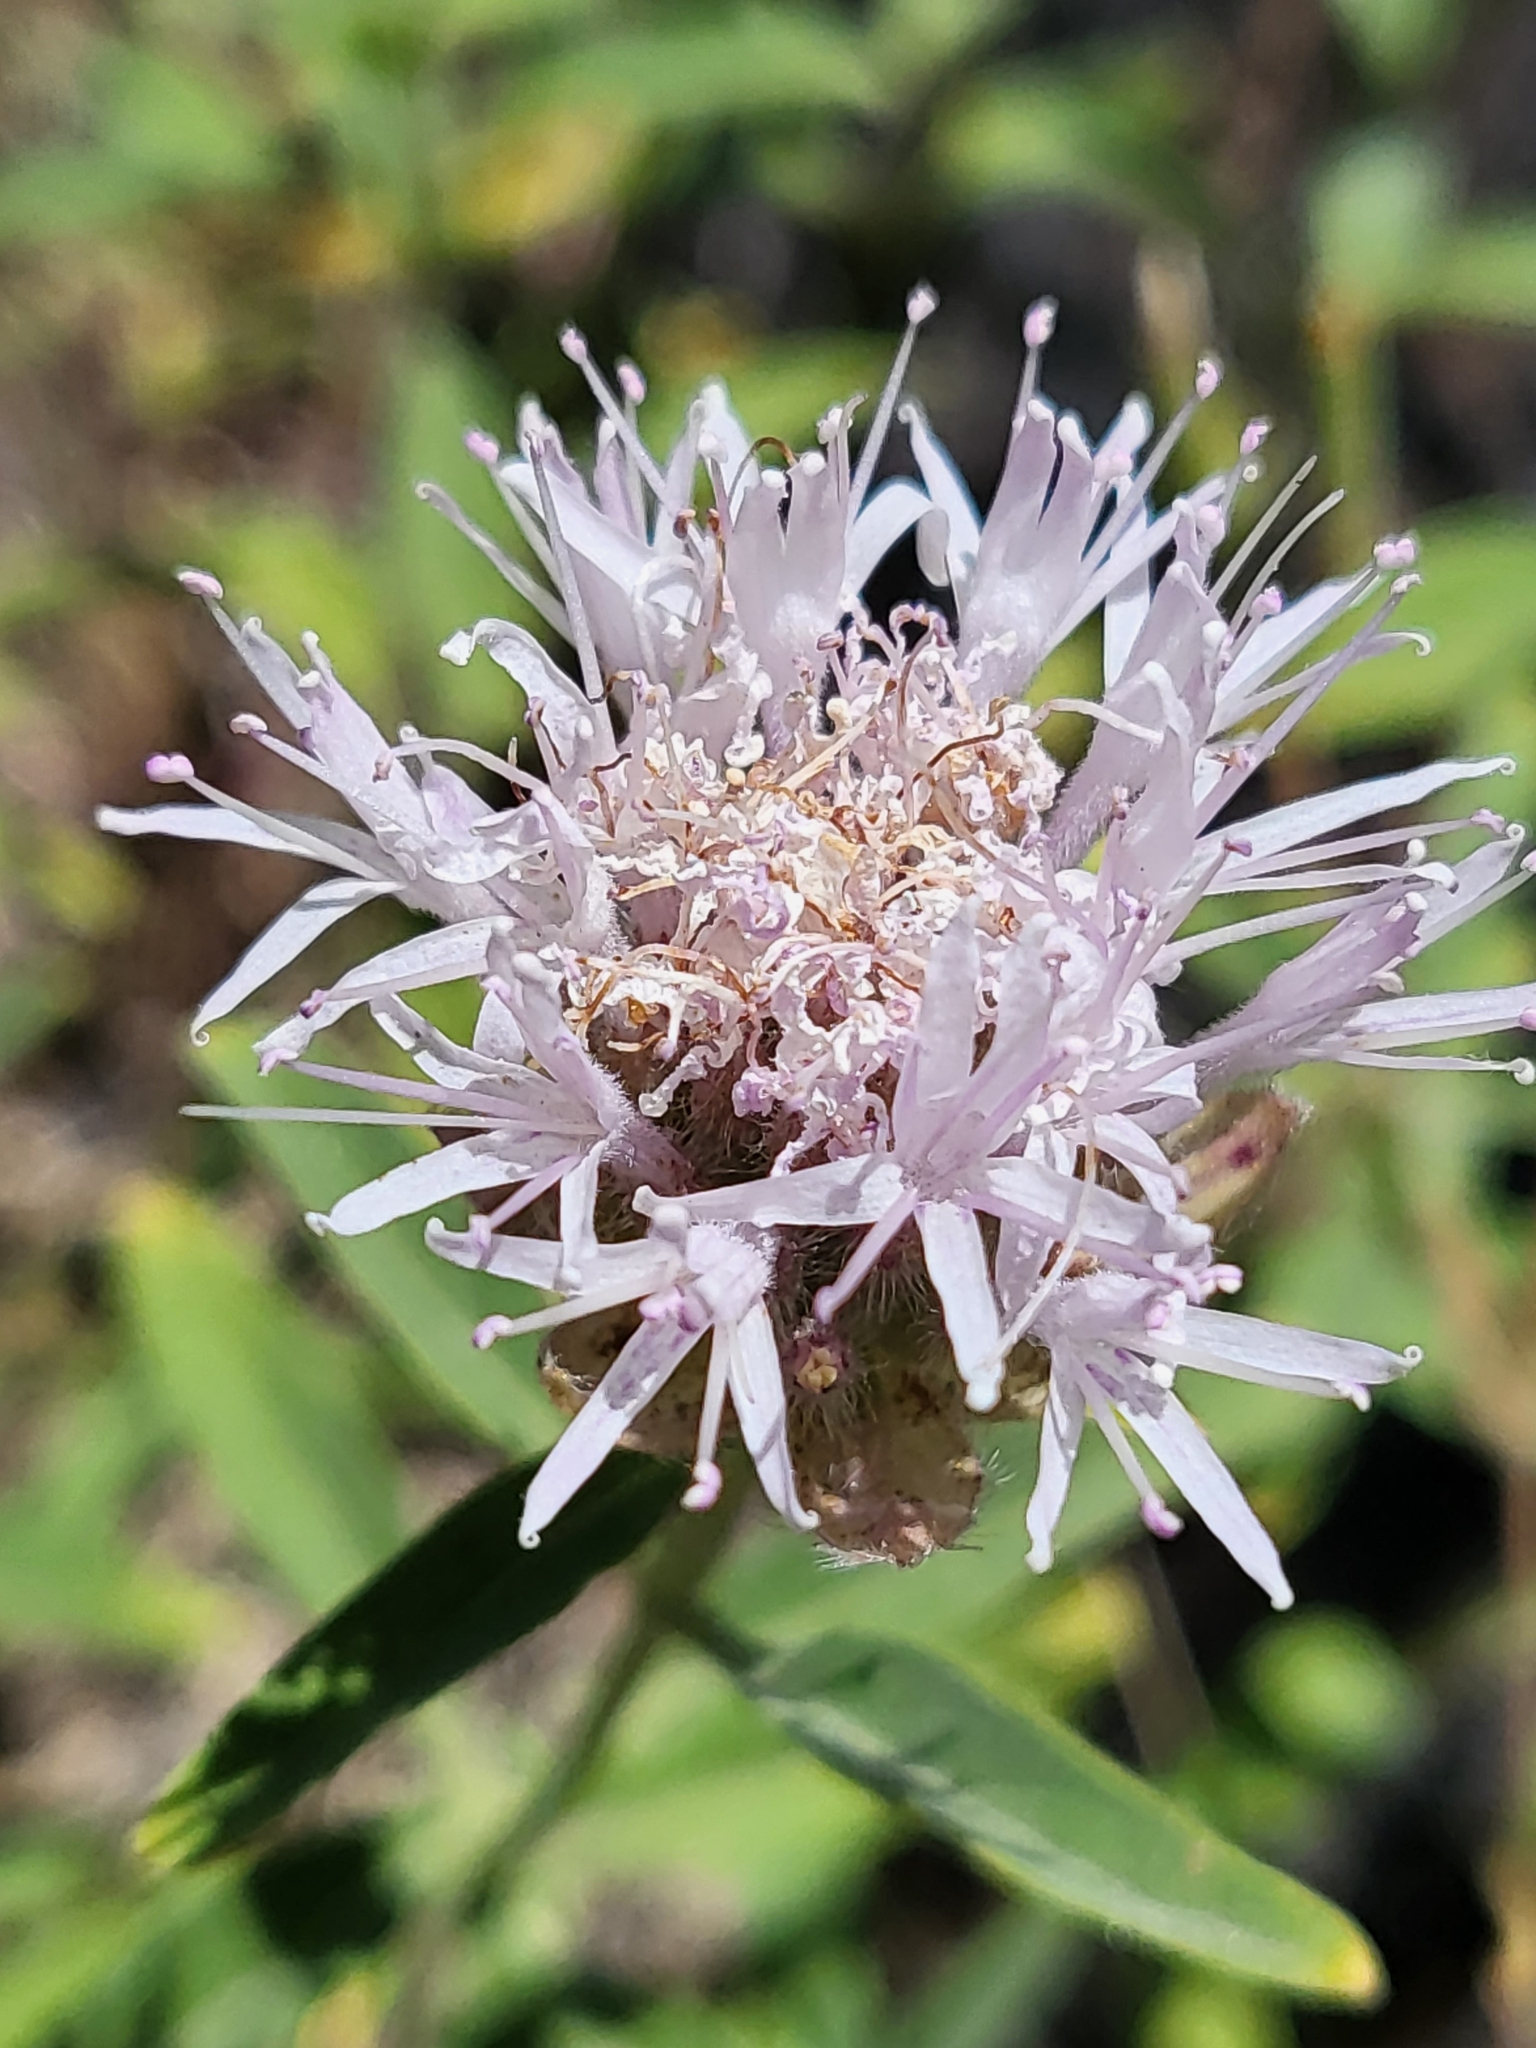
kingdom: Plantae
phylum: Tracheophyta
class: Magnoliopsida
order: Lamiales
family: Lamiaceae
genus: Monardella
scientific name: Monardella odoratissima
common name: Pacific monardella
